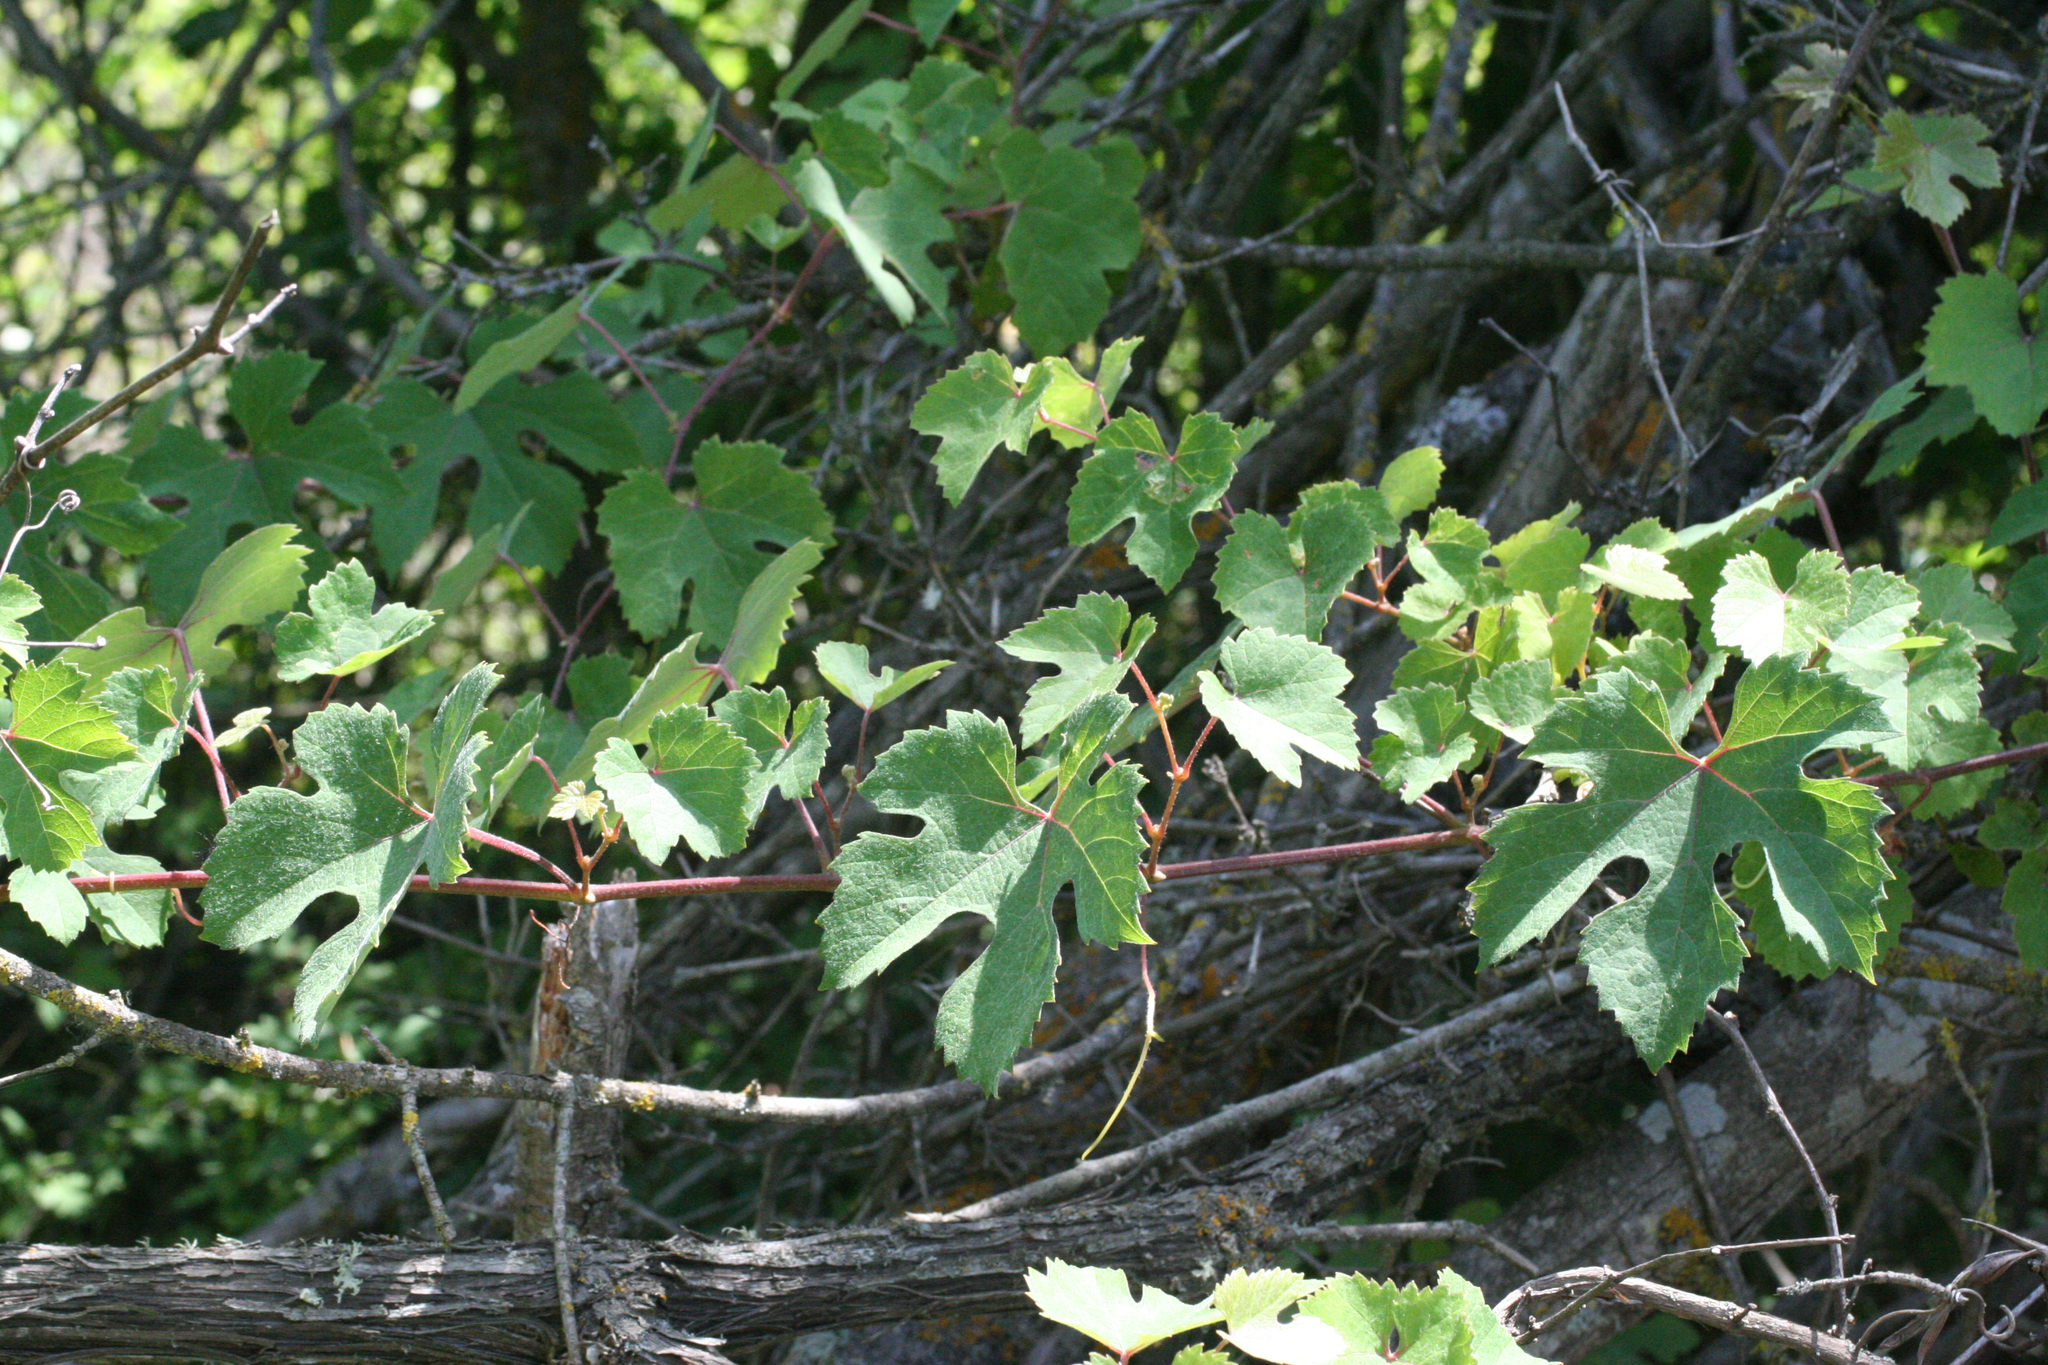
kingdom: Plantae
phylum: Tracheophyta
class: Magnoliopsida
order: Vitales
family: Vitaceae
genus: Vitis
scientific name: Vitis gmelinii
